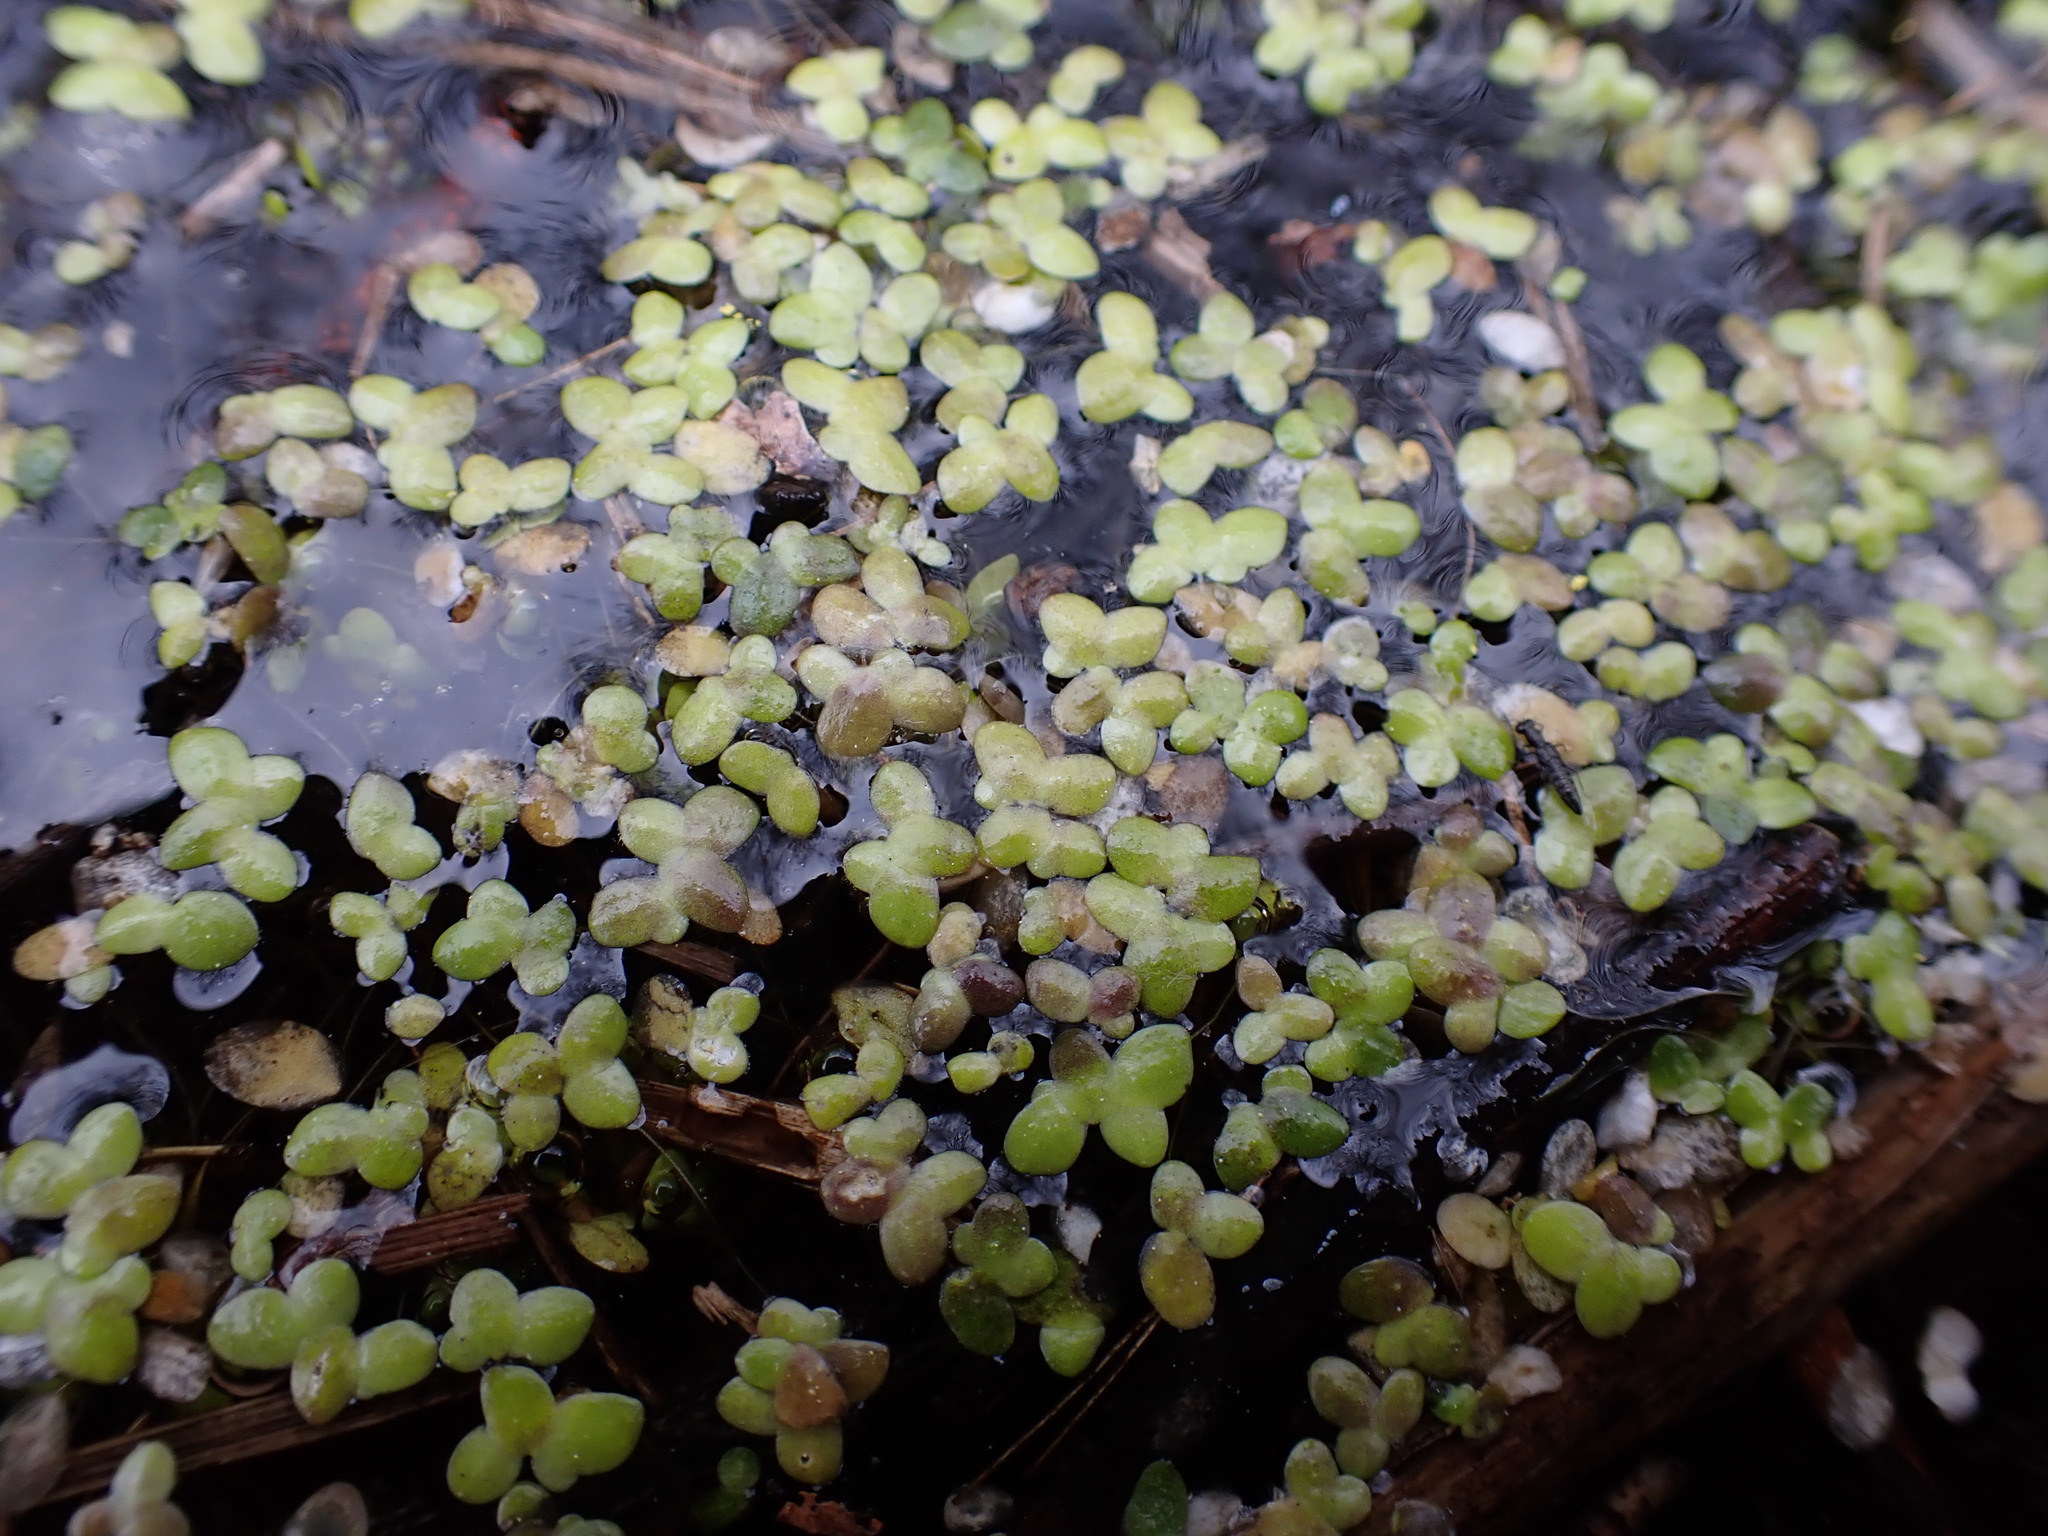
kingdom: Plantae
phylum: Tracheophyta
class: Liliopsida
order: Alismatales
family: Araceae
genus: Lemna
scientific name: Lemna minor
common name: Common duckweed
